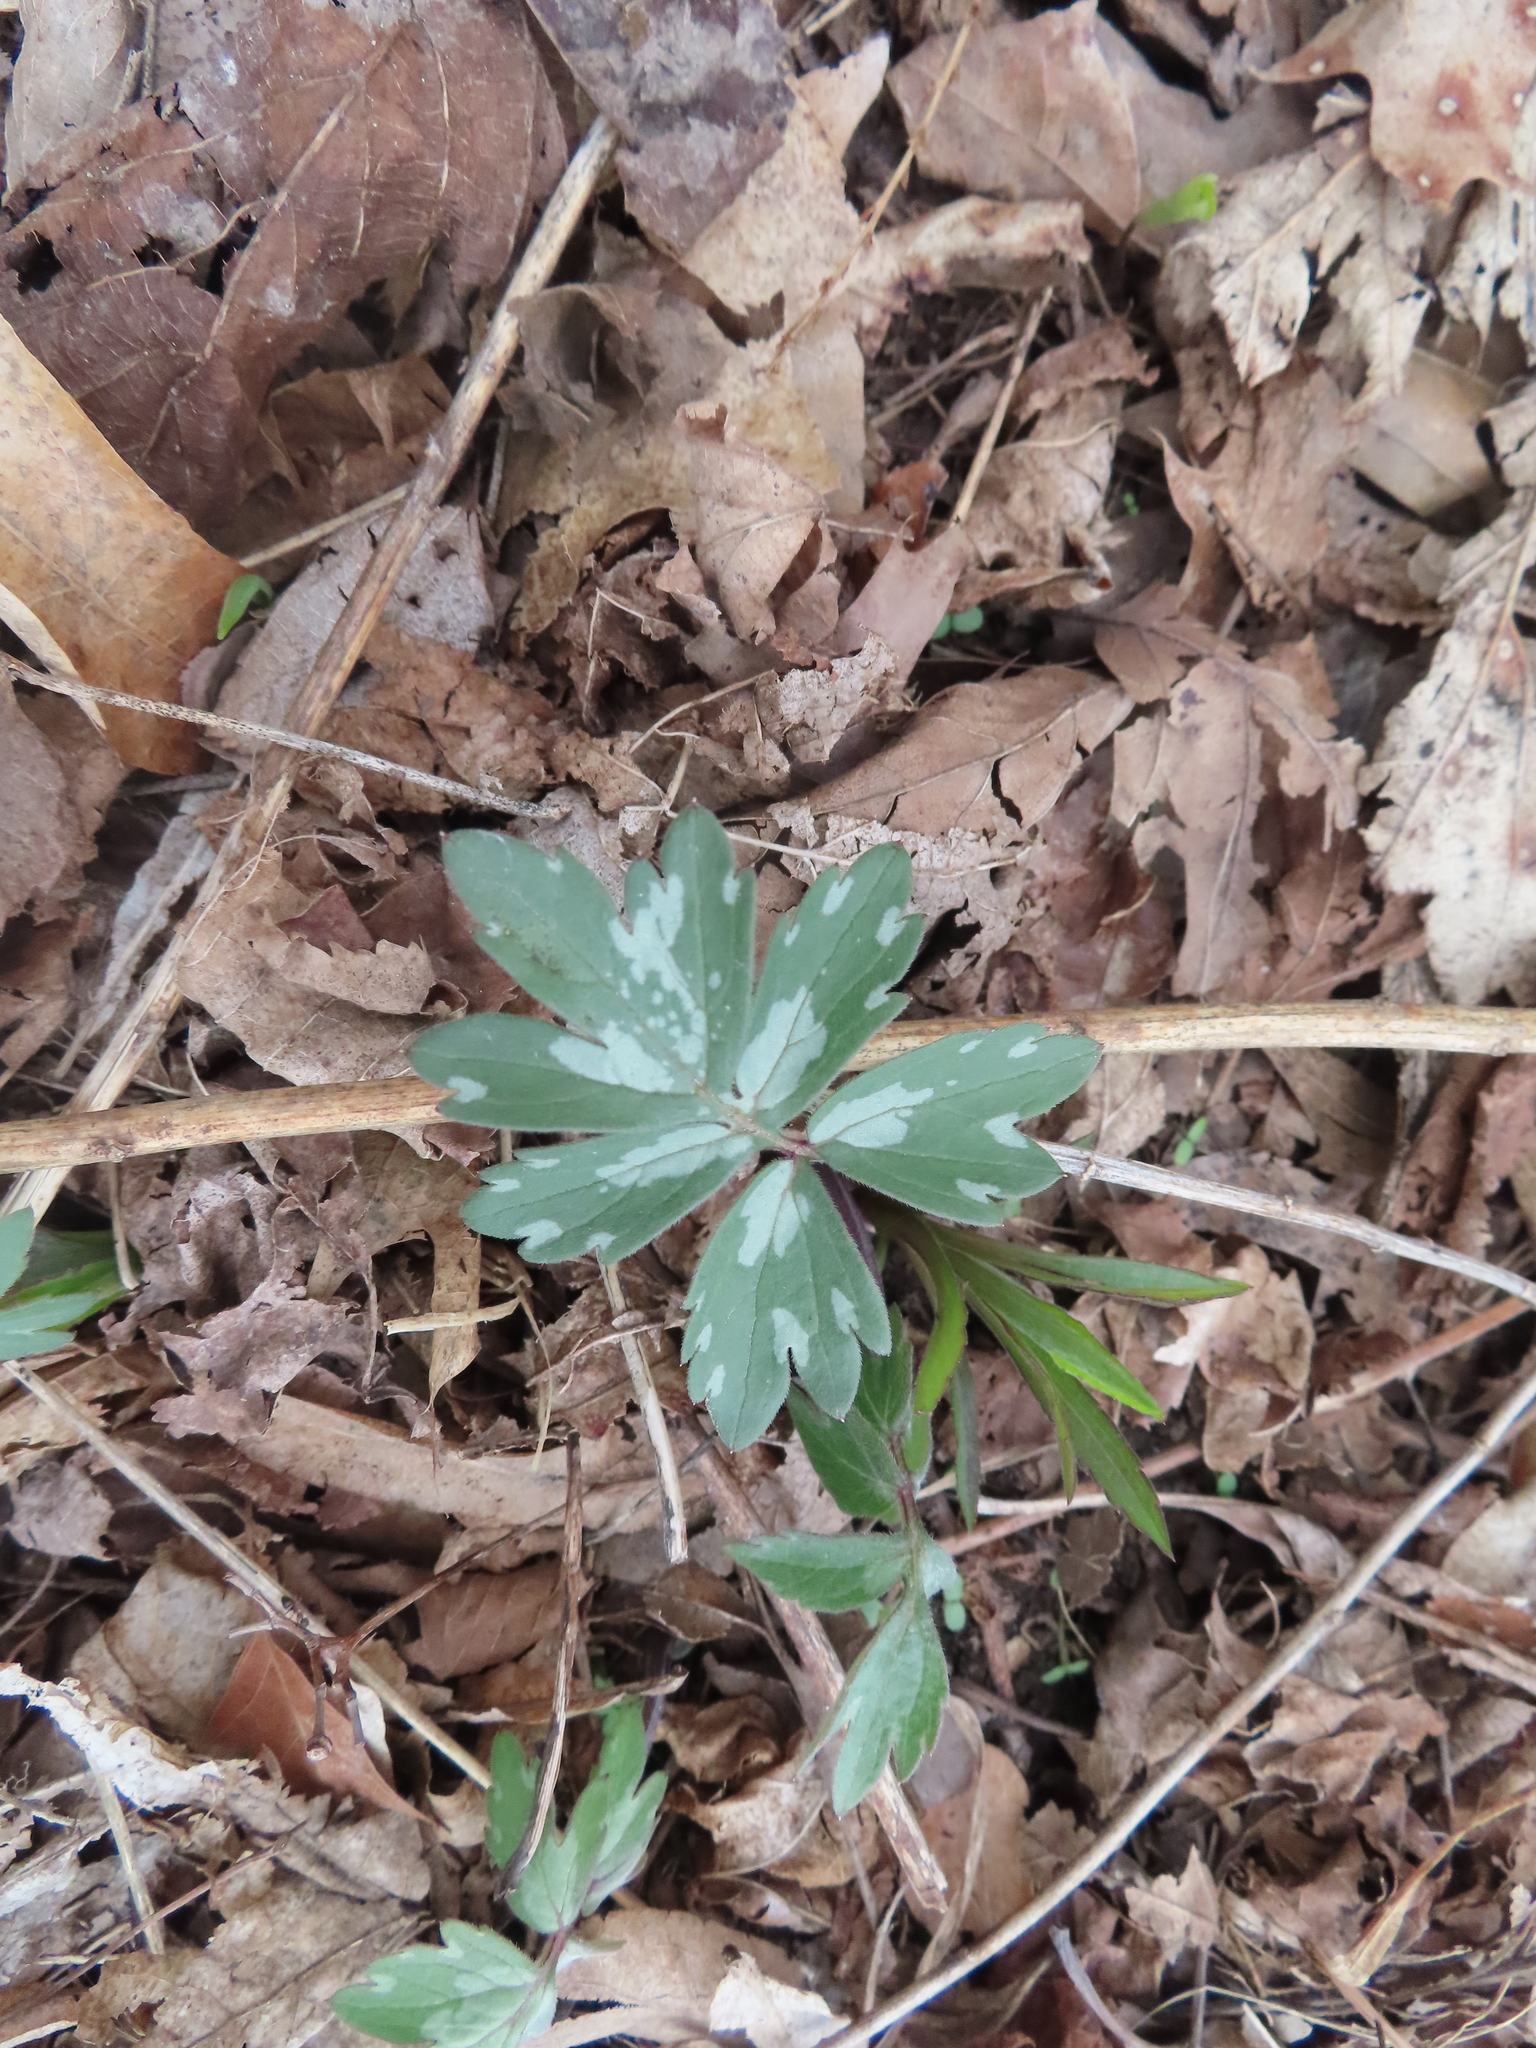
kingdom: Plantae
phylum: Tracheophyta
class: Magnoliopsida
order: Boraginales
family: Hydrophyllaceae
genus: Hydrophyllum
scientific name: Hydrophyllum virginianum
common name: Virginia waterleaf
